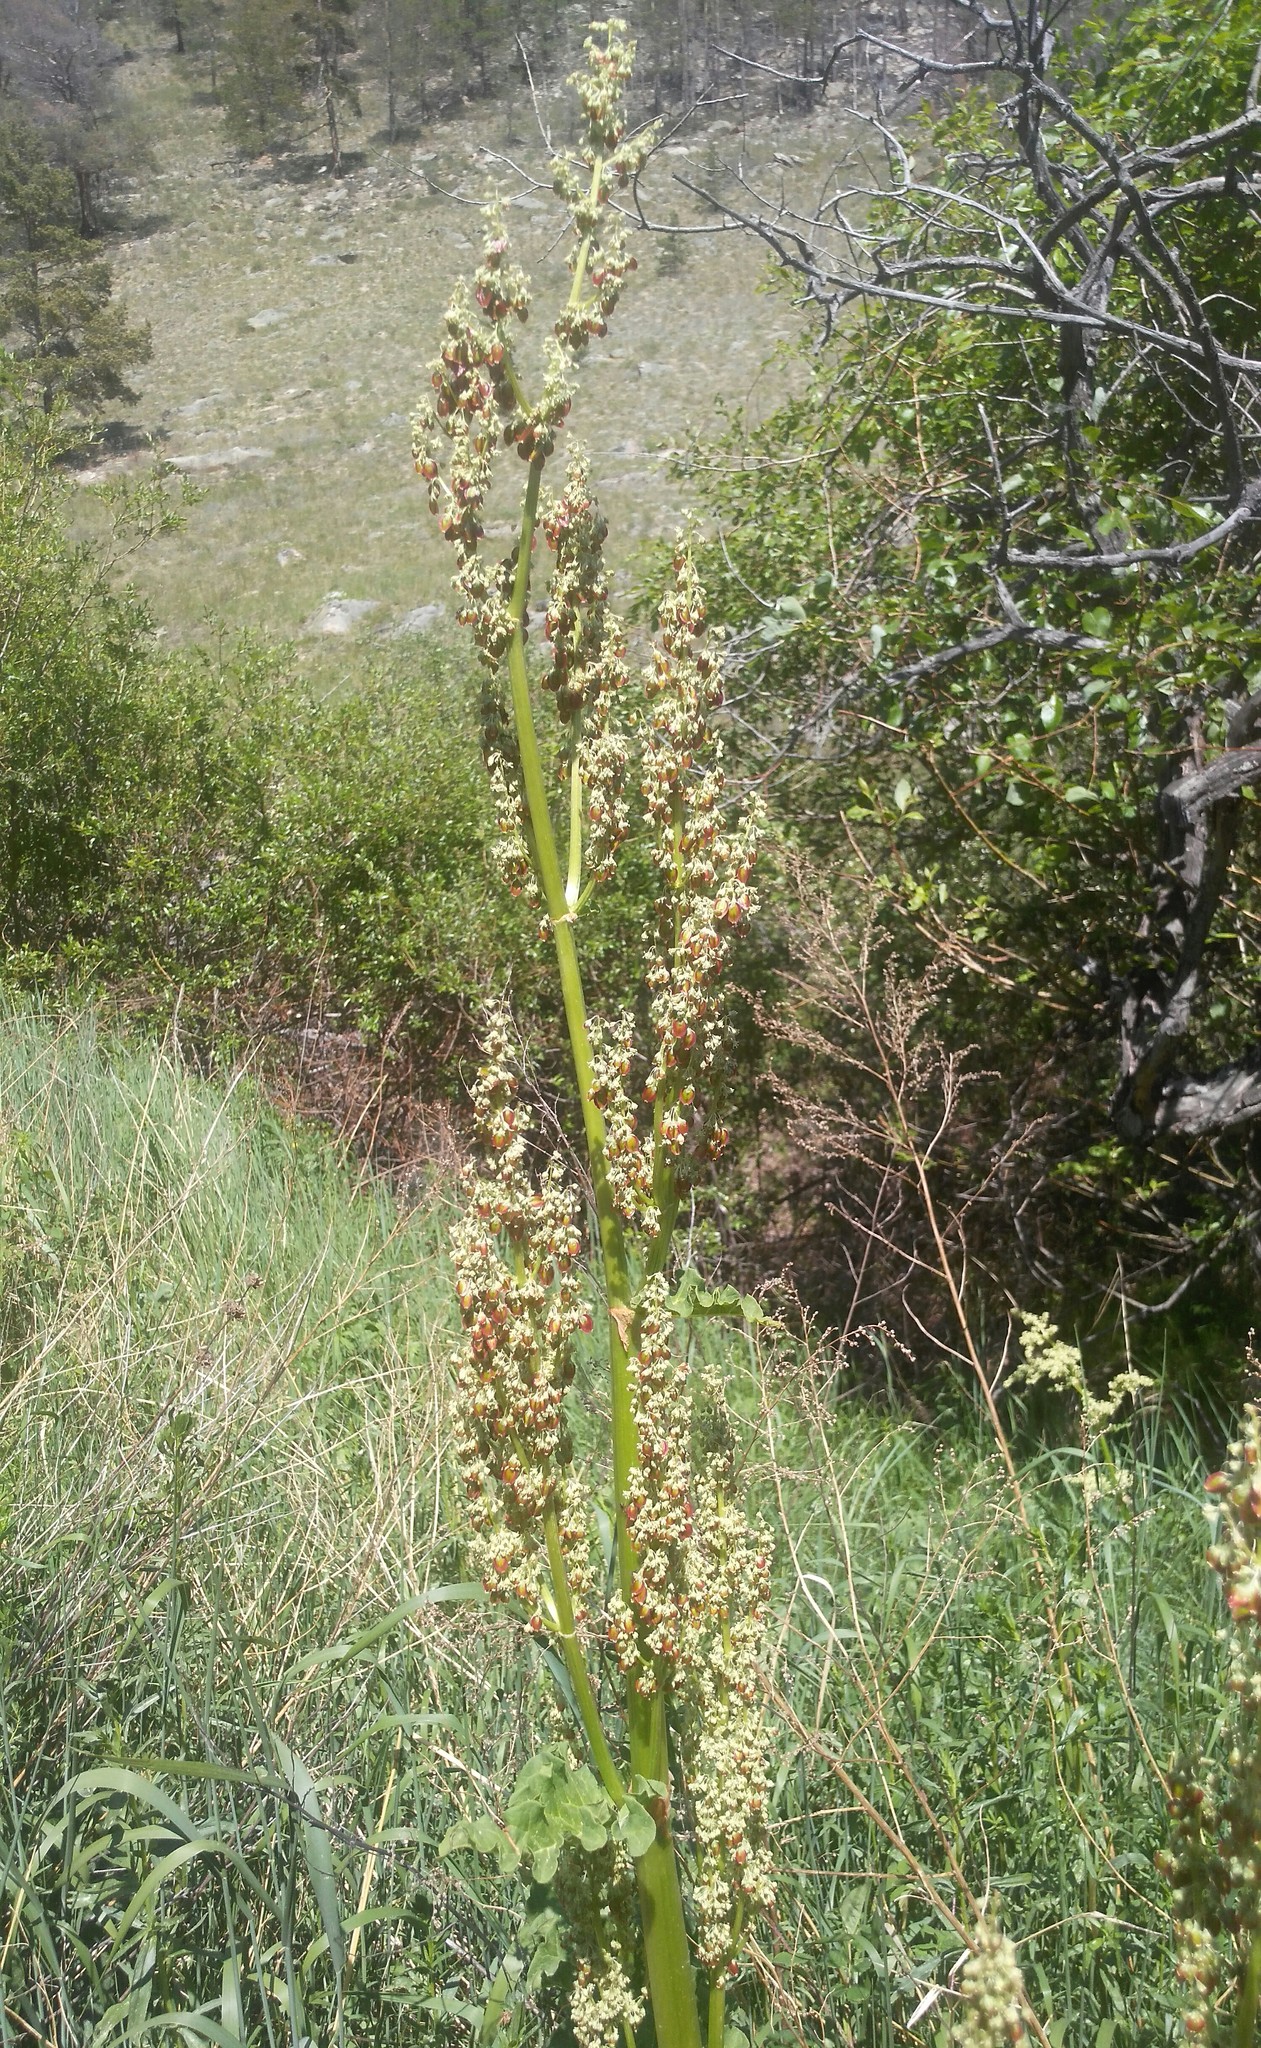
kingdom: Plantae
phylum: Tracheophyta
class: Magnoliopsida
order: Caryophyllales
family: Polygonaceae
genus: Rheum
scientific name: Rheum rhabarbarum
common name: Garden rhubarb
